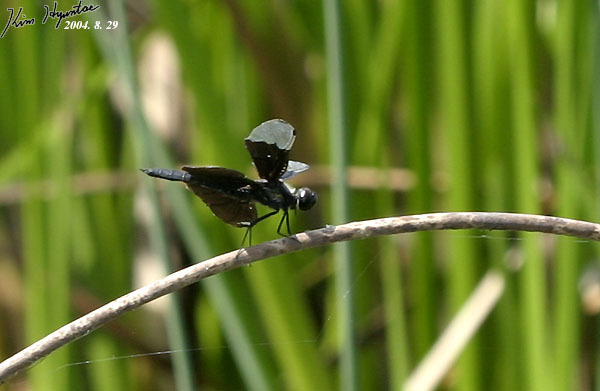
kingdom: Animalia
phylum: Arthropoda
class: Insecta
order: Odonata
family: Libellulidae
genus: Rhyothemis
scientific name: Rhyothemis fuliginosa
